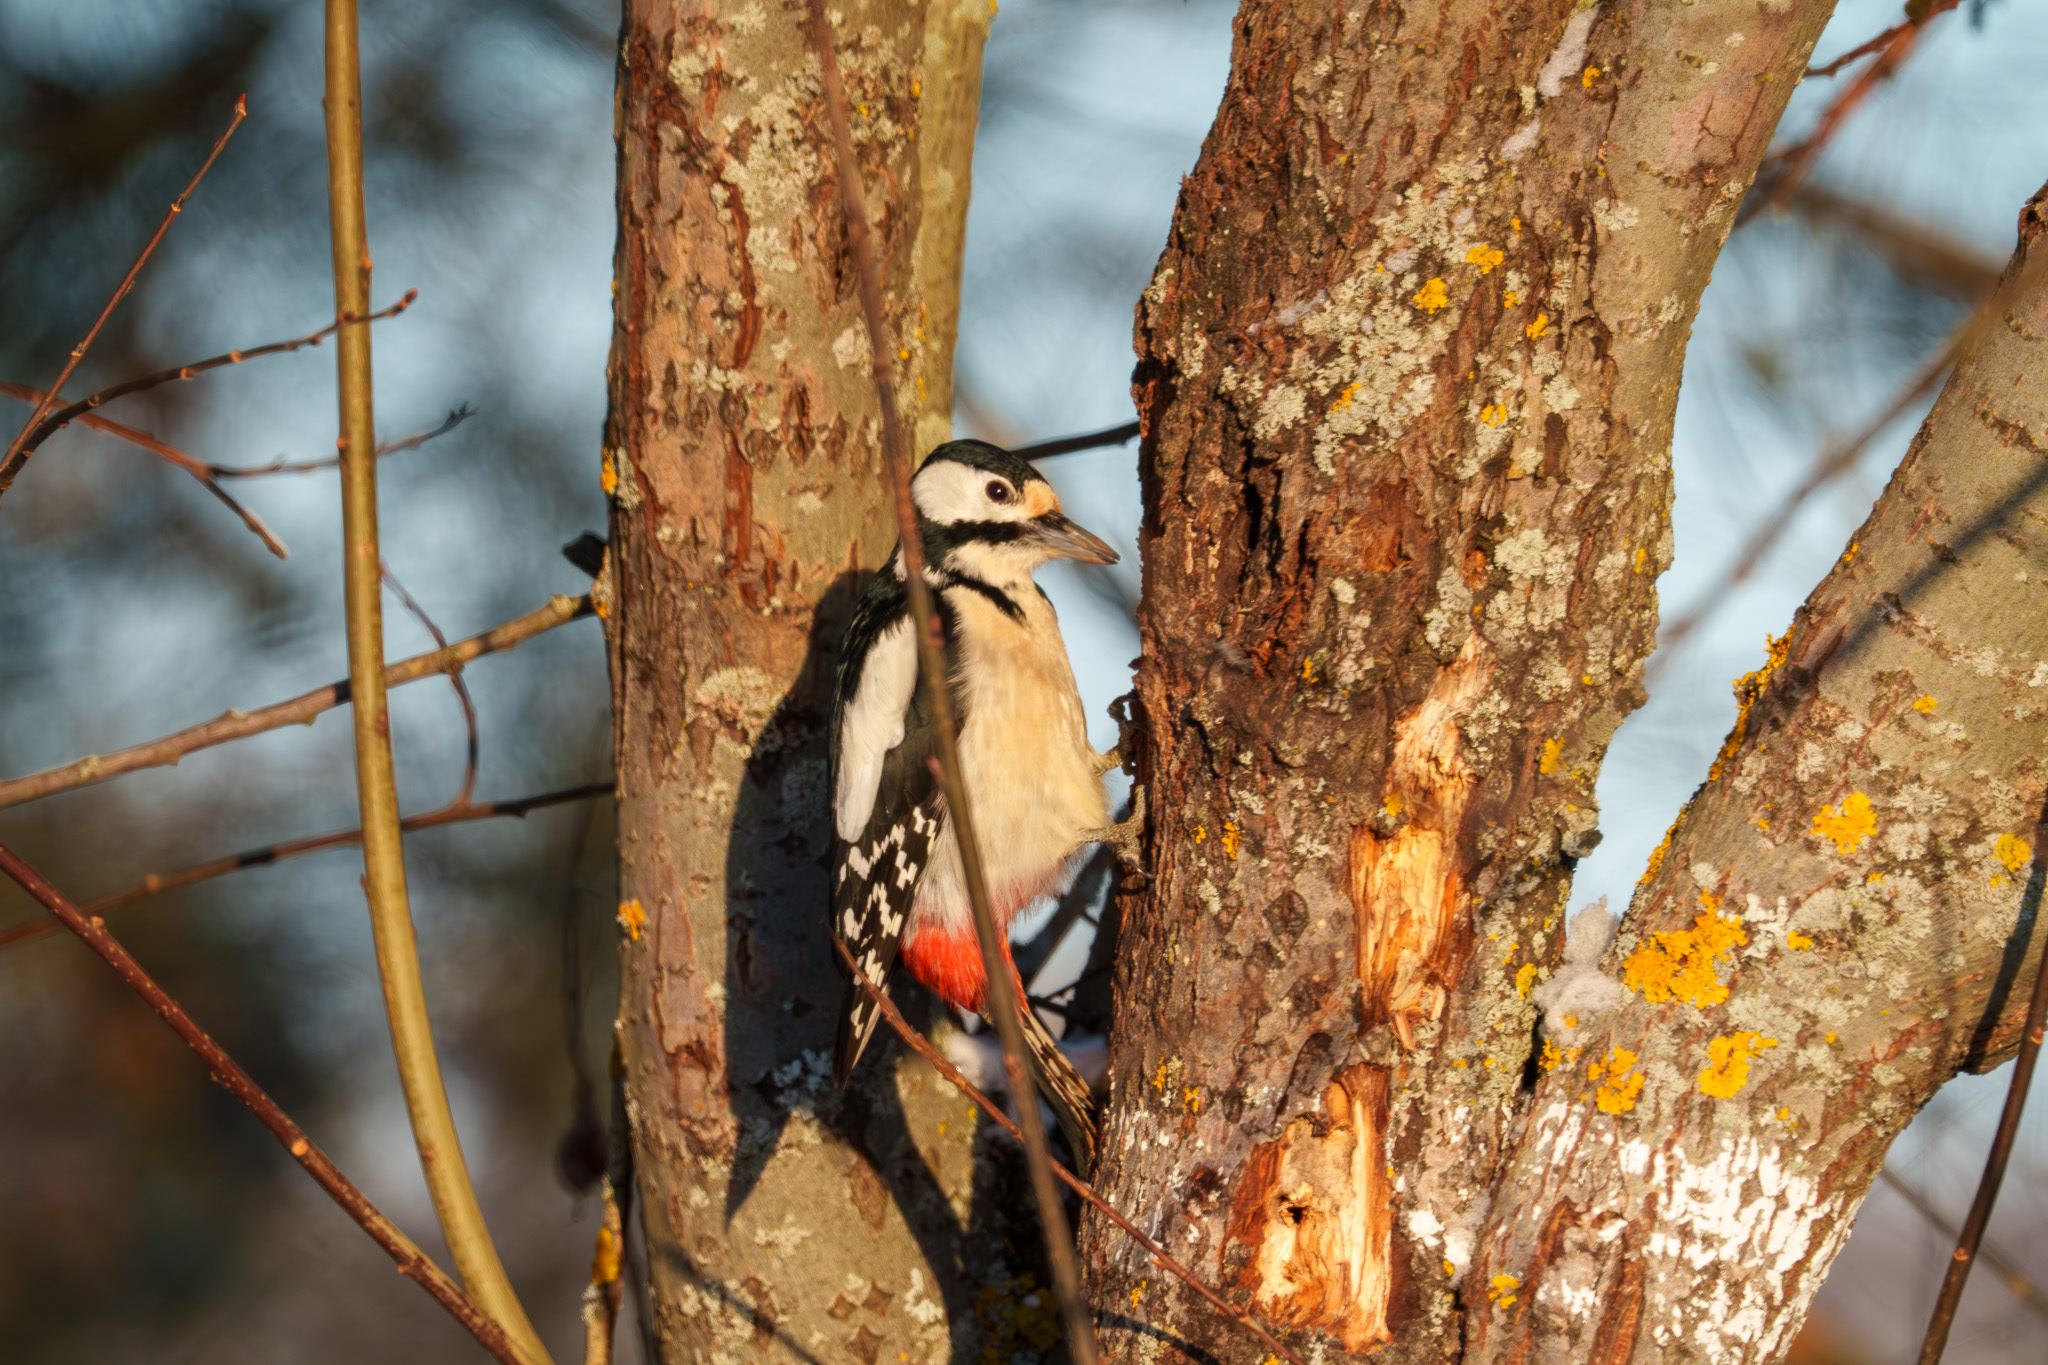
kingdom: Animalia
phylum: Chordata
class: Aves
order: Piciformes
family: Picidae
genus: Dendrocopos
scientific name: Dendrocopos major
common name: Great spotted woodpecker
